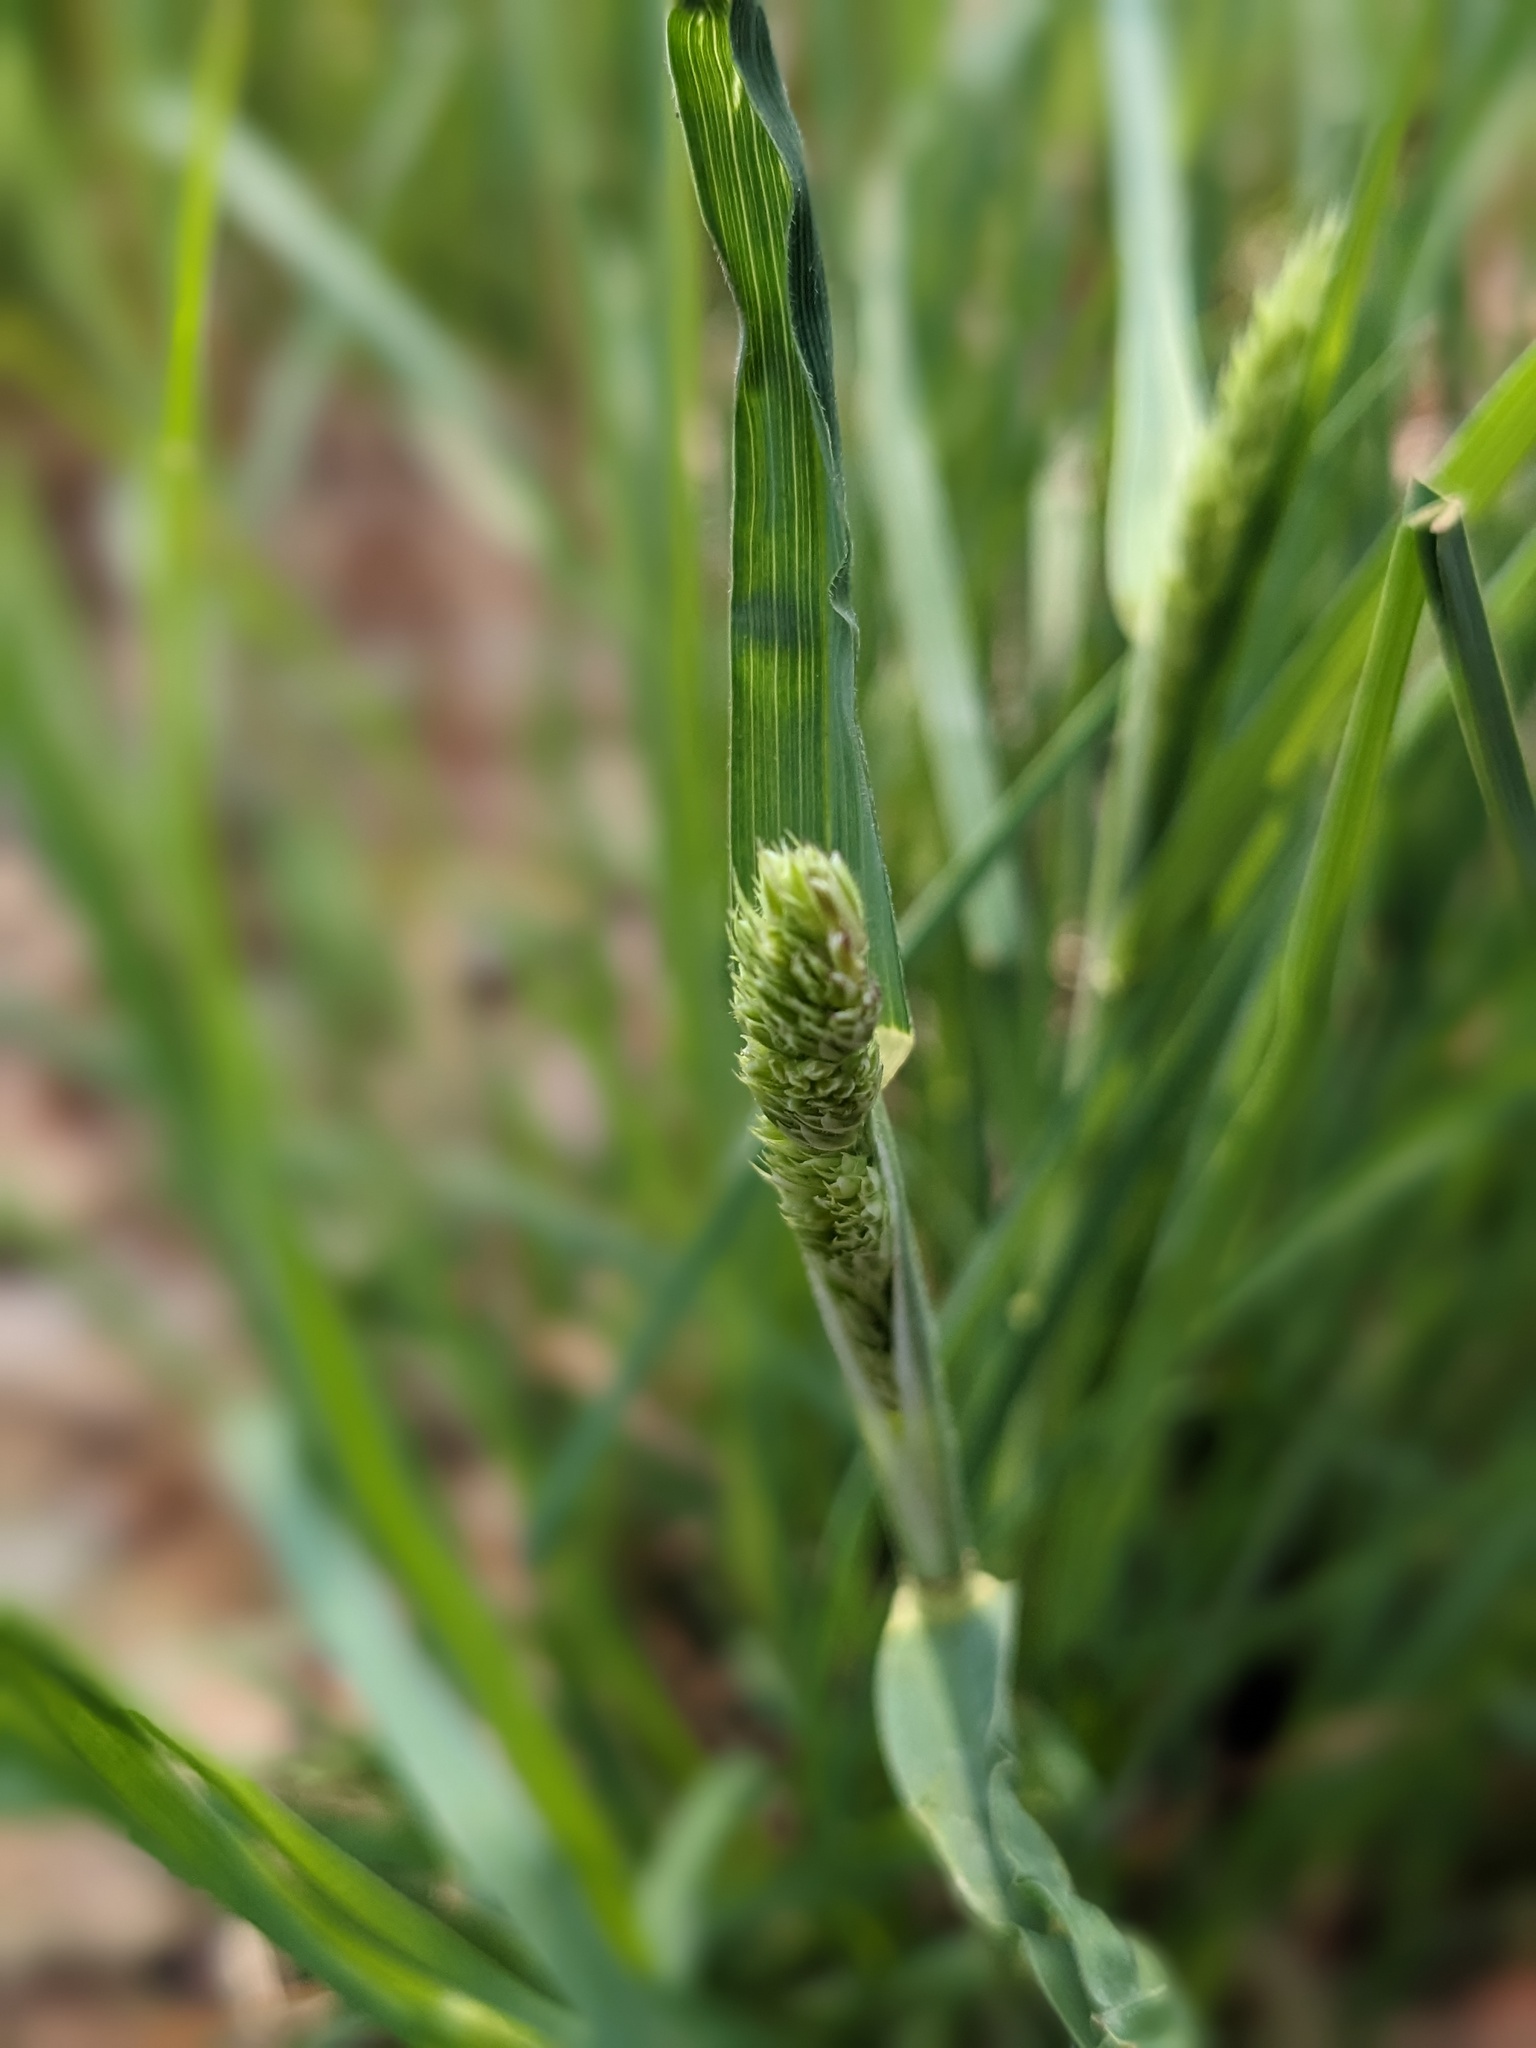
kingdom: Plantae
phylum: Tracheophyta
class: Liliopsida
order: Poales
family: Poaceae
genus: Dactylis
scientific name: Dactylis glomerata
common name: Orchardgrass
